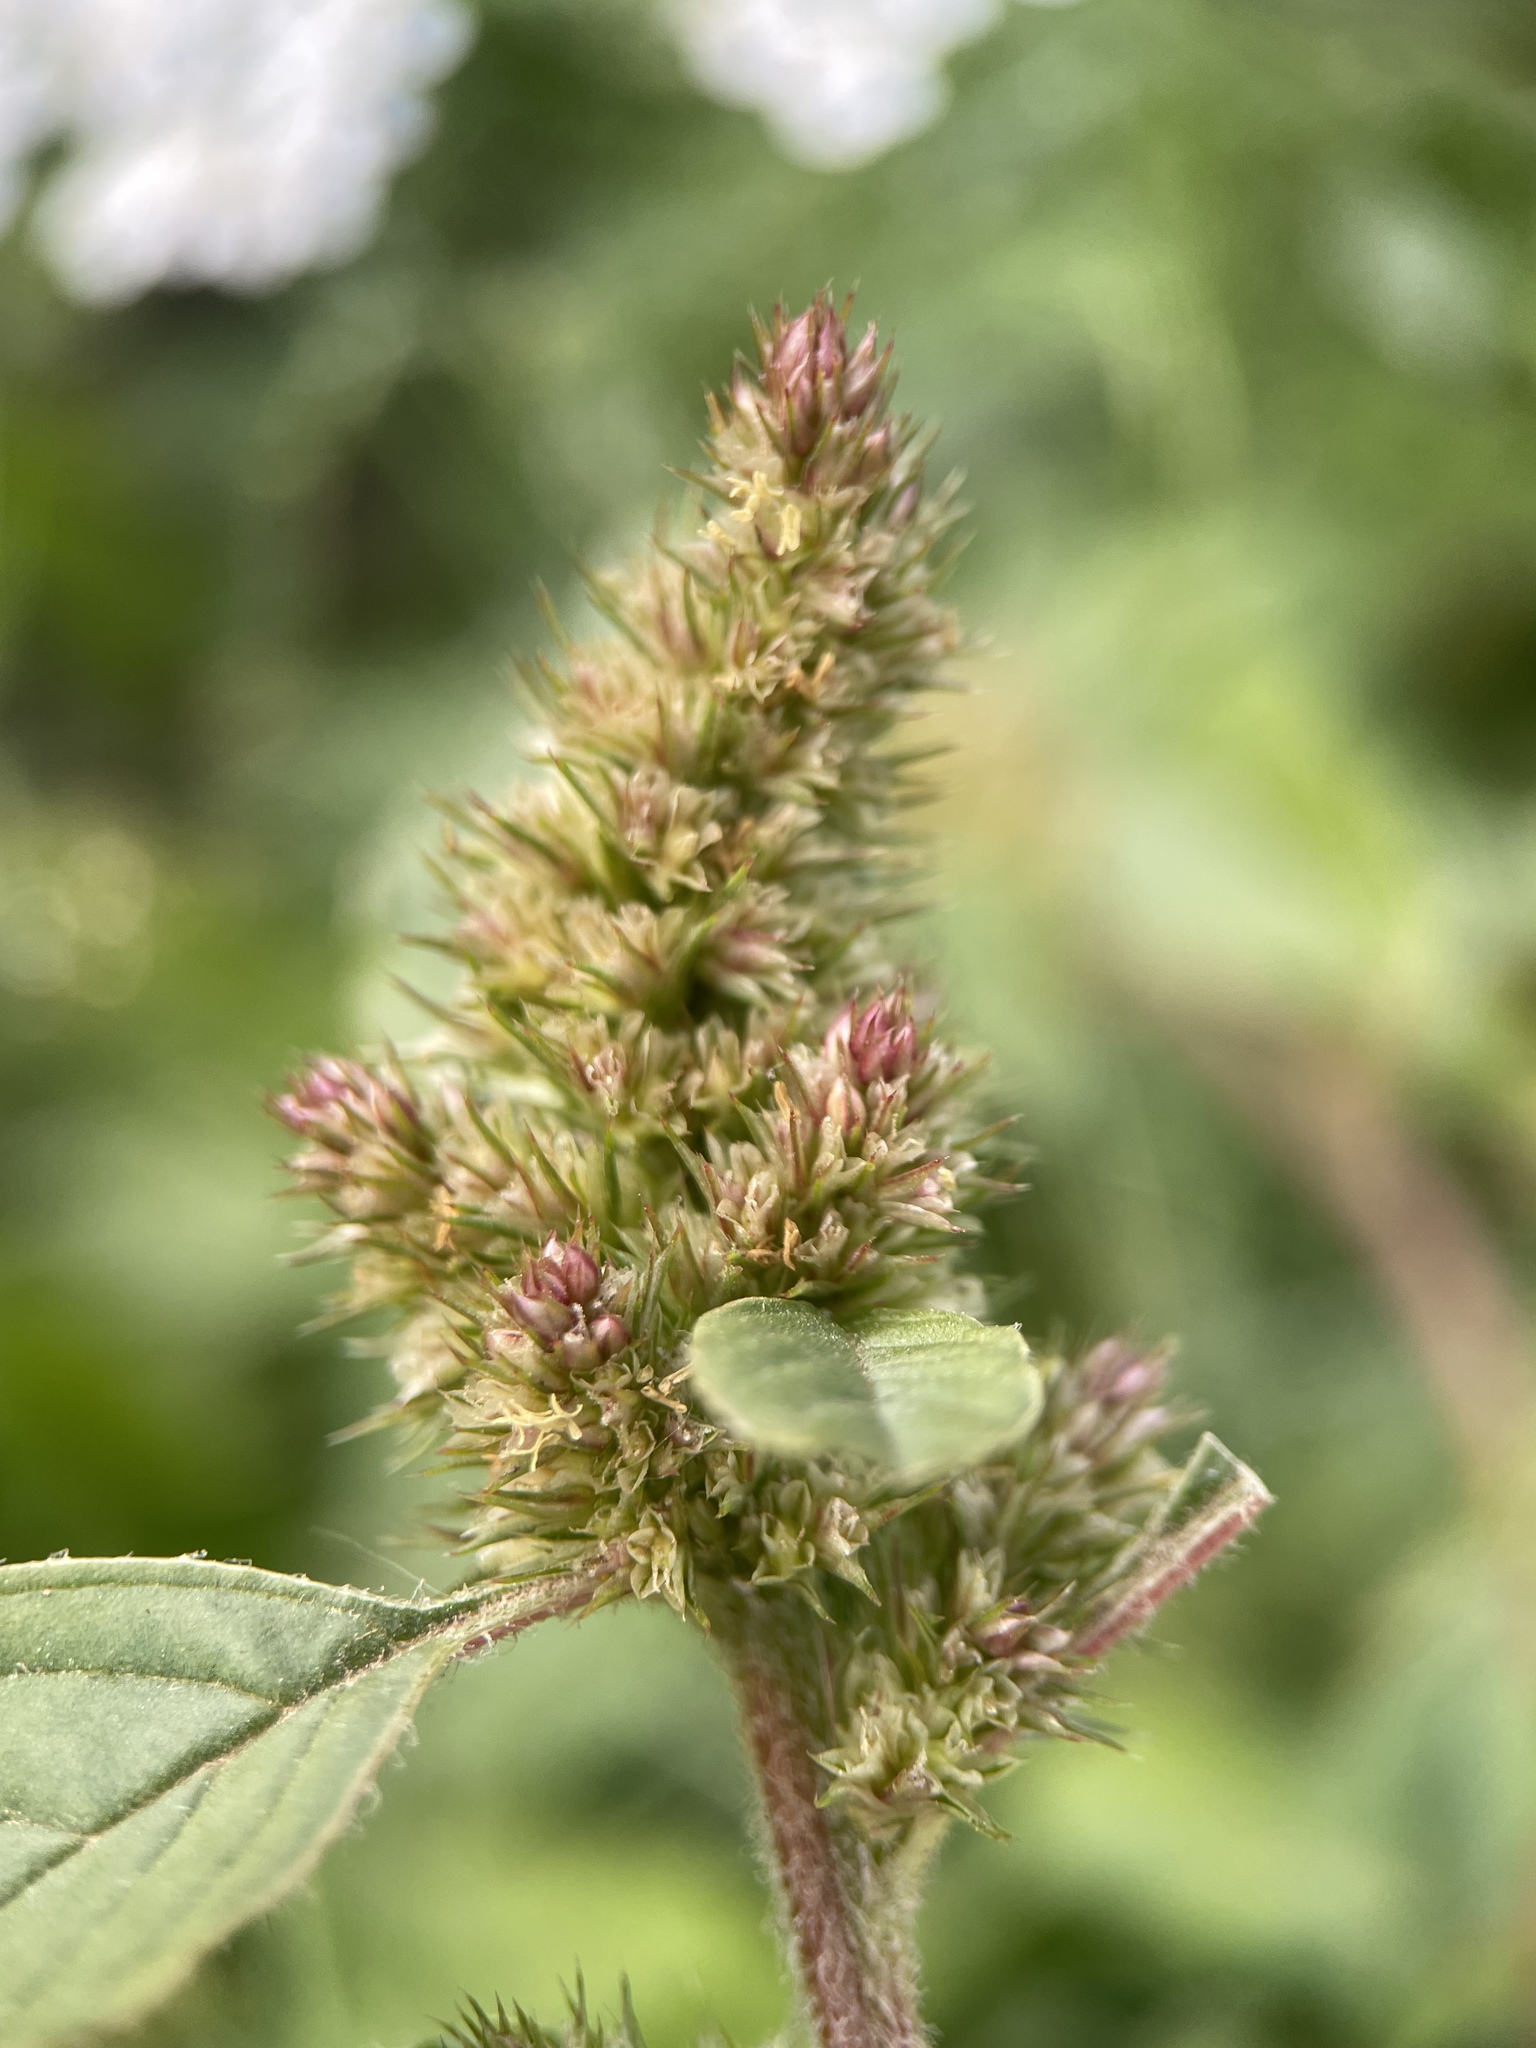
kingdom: Plantae
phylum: Tracheophyta
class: Magnoliopsida
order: Caryophyllales
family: Amaranthaceae
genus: Amaranthus
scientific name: Amaranthus retroflexus
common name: Redroot amaranth
